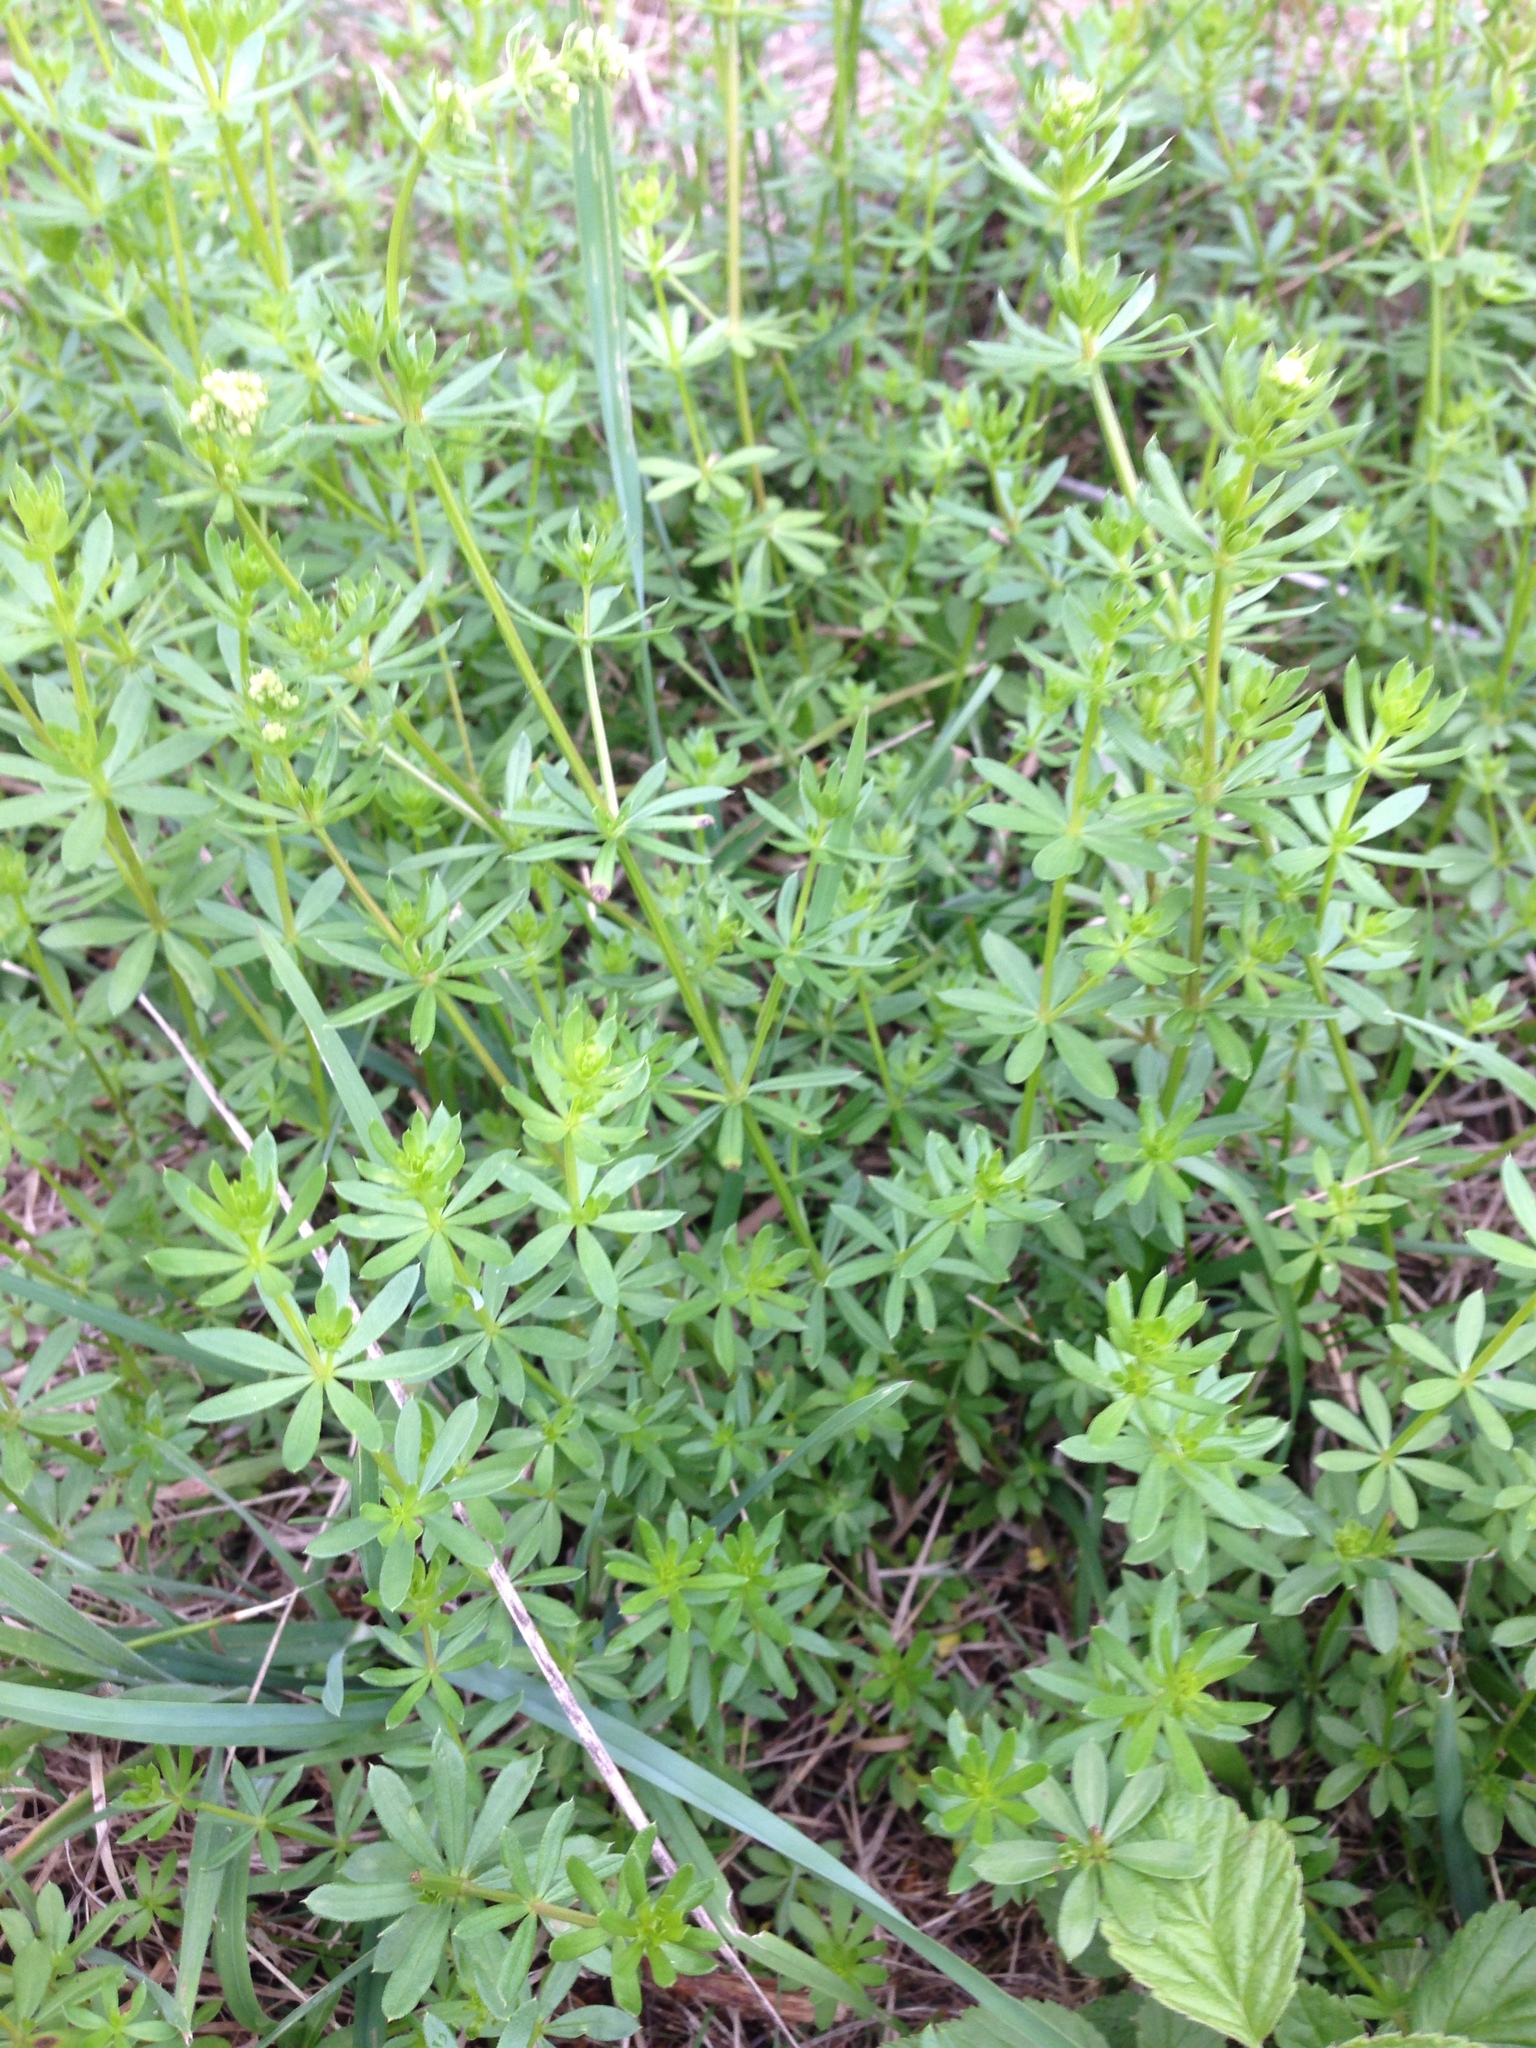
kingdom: Plantae
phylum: Tracheophyta
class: Magnoliopsida
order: Gentianales
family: Rubiaceae
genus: Galium
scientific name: Galium mollugo
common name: Hedge bedstraw
